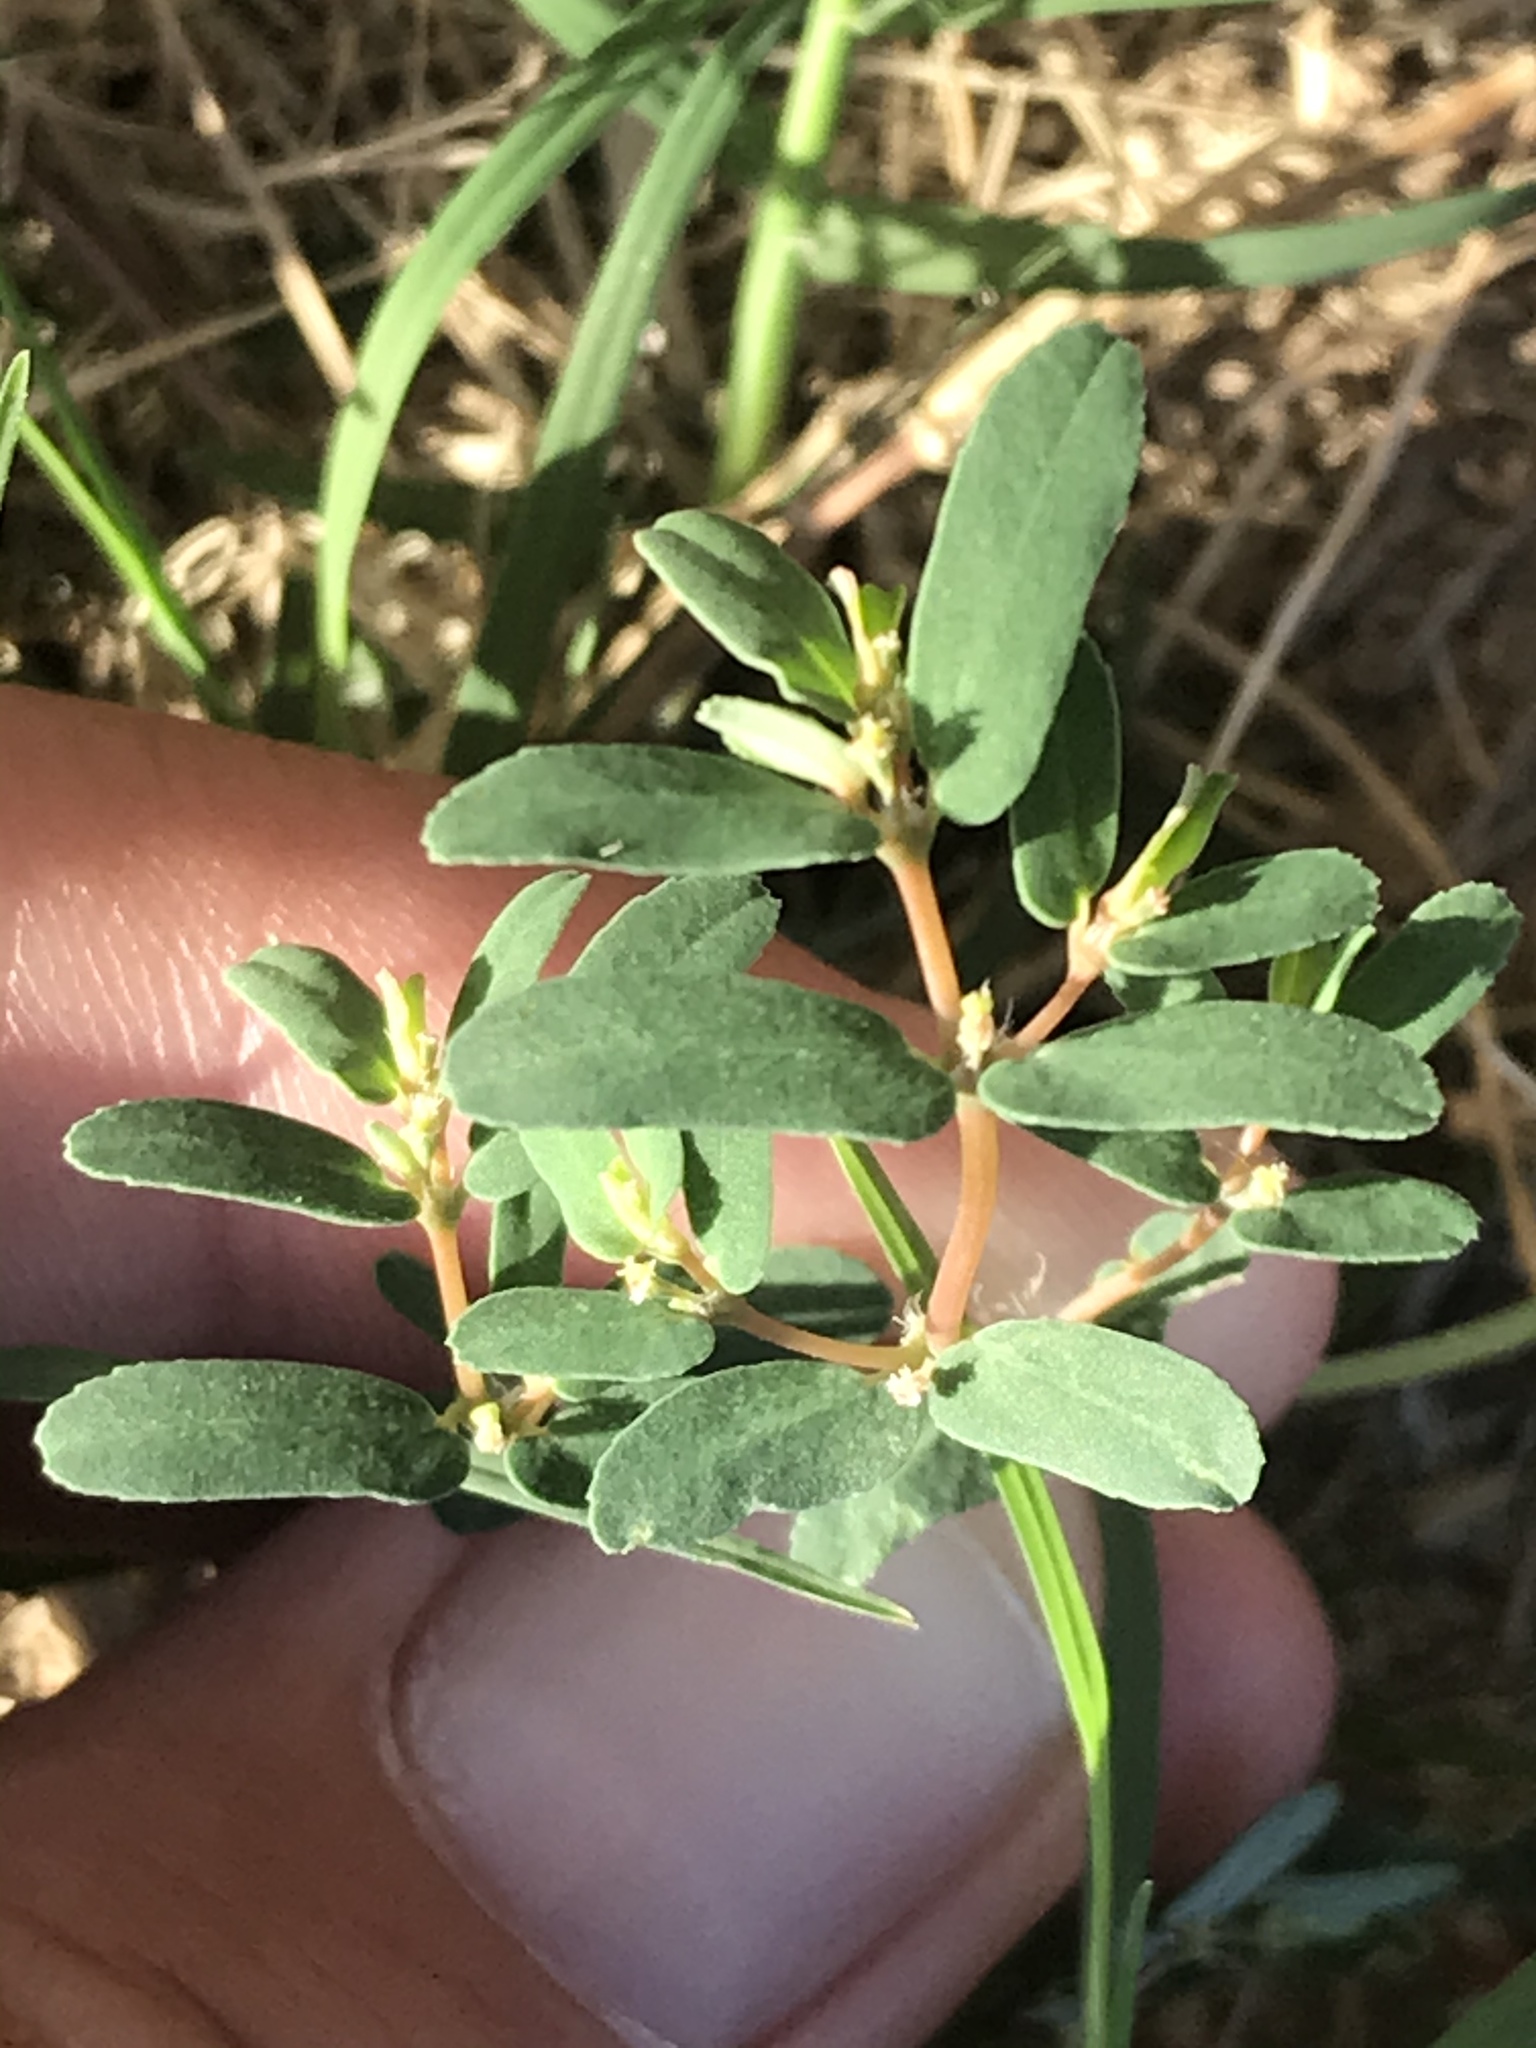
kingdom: Plantae
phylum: Tracheophyta
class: Magnoliopsida
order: Malpighiales
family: Euphorbiaceae
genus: Euphorbia
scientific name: Euphorbia glyptosperma
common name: Corrugate-seeded spurge
